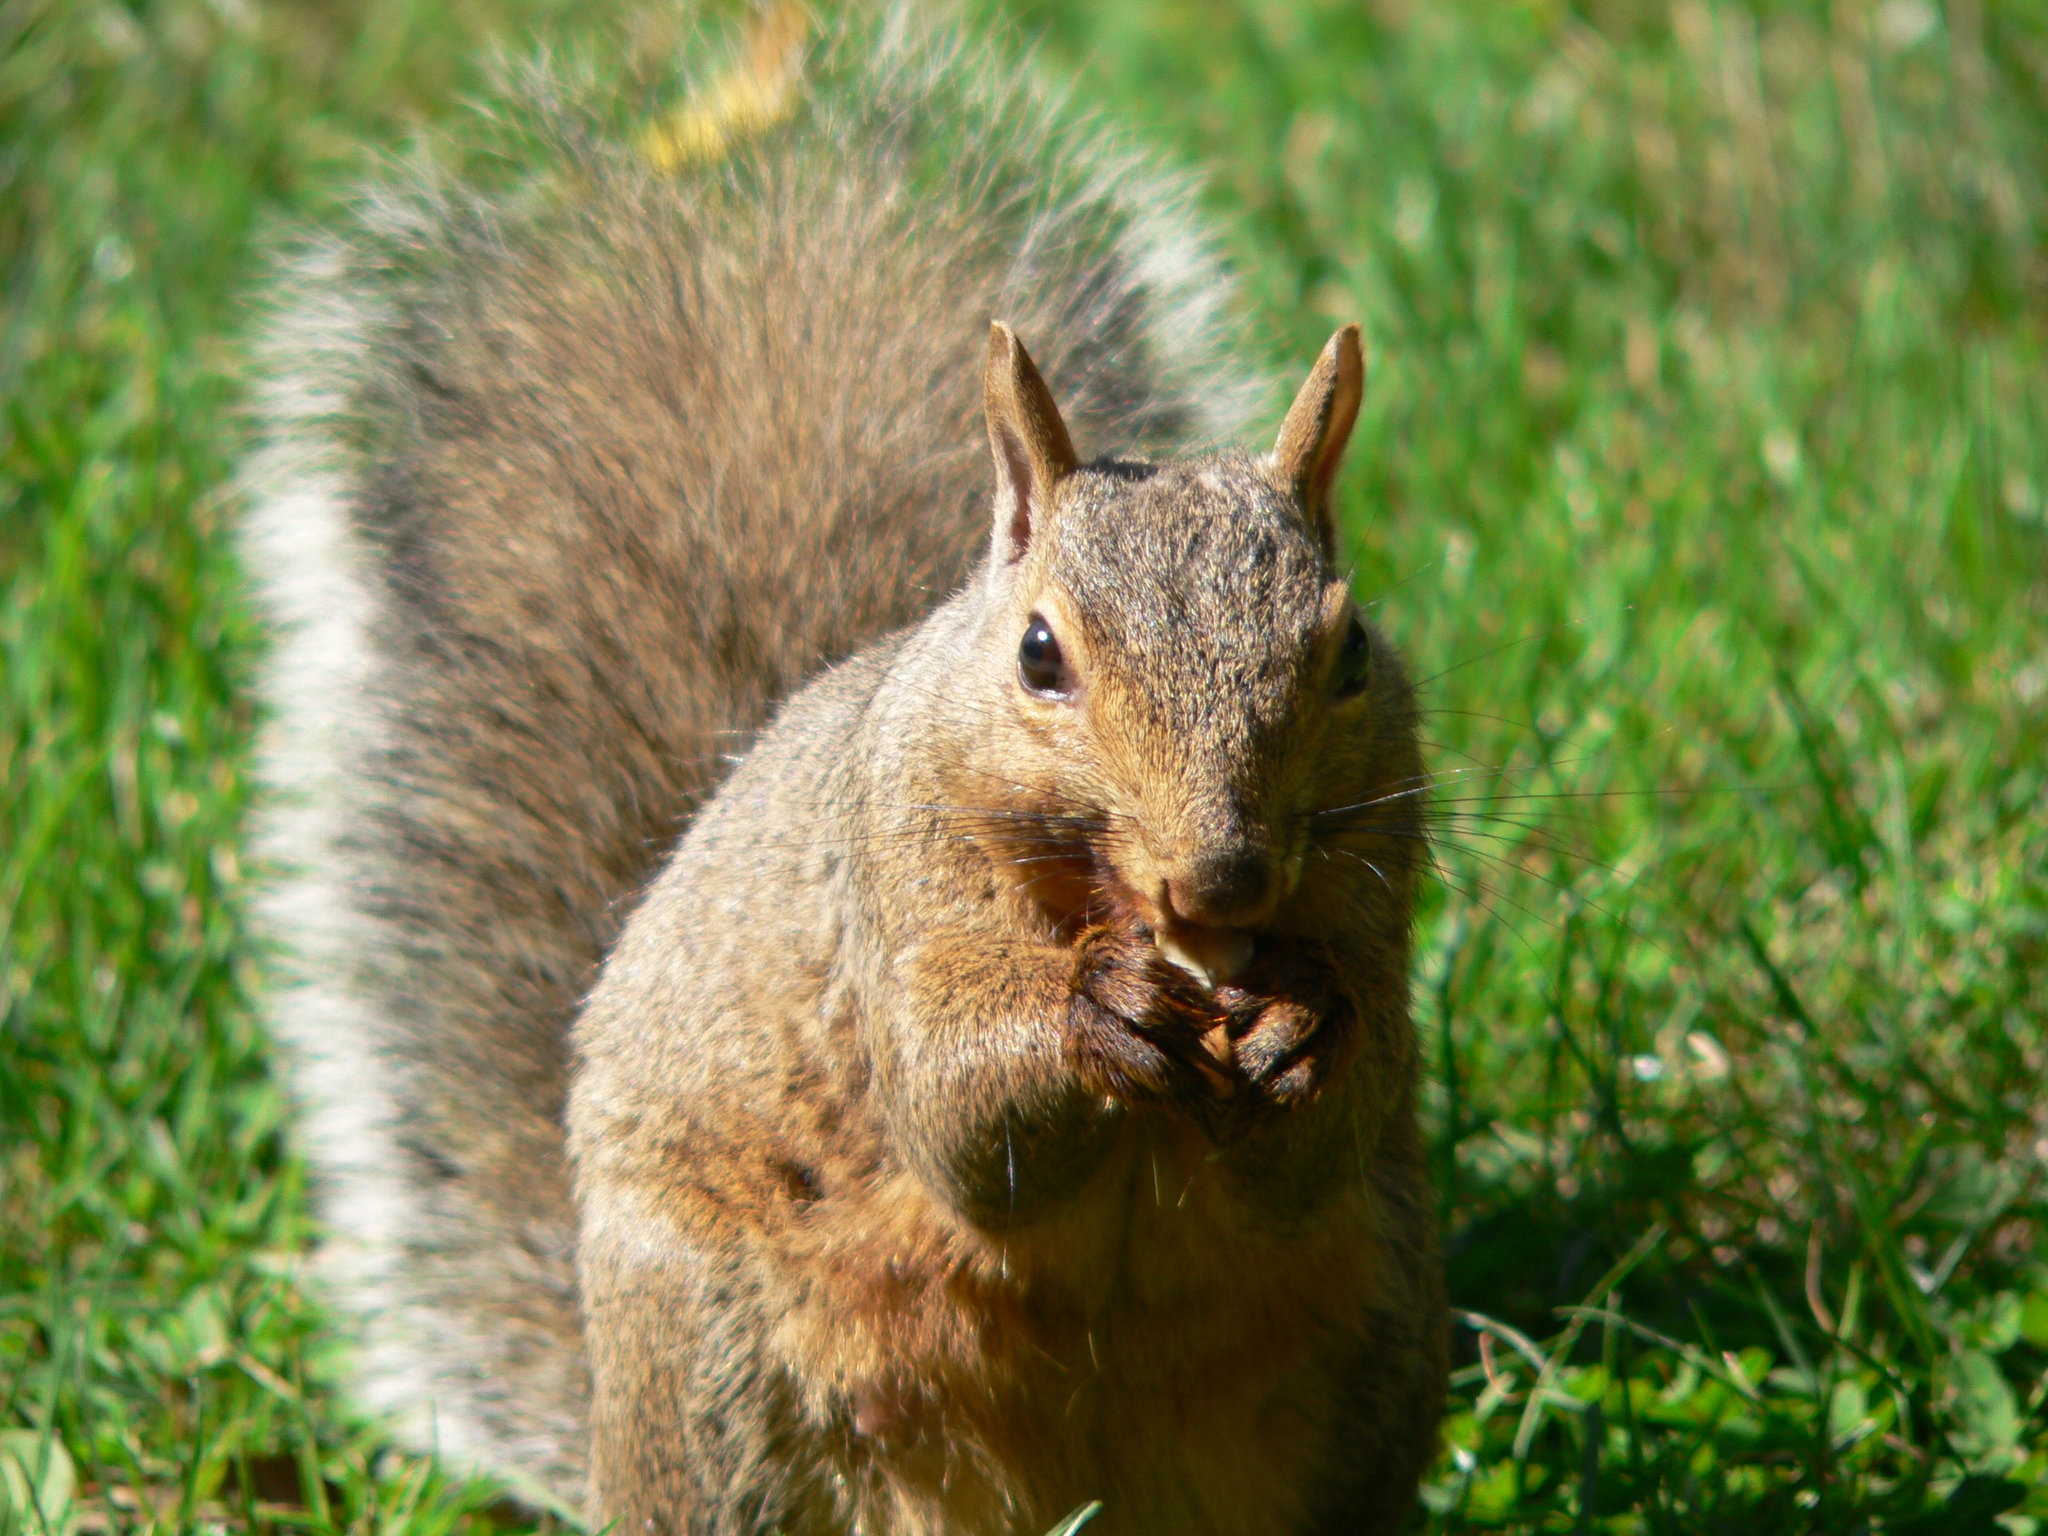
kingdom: Animalia
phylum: Chordata
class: Mammalia
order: Rodentia
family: Sciuridae
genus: Sciurus
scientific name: Sciurus carolinensis
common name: Eastern gray squirrel
